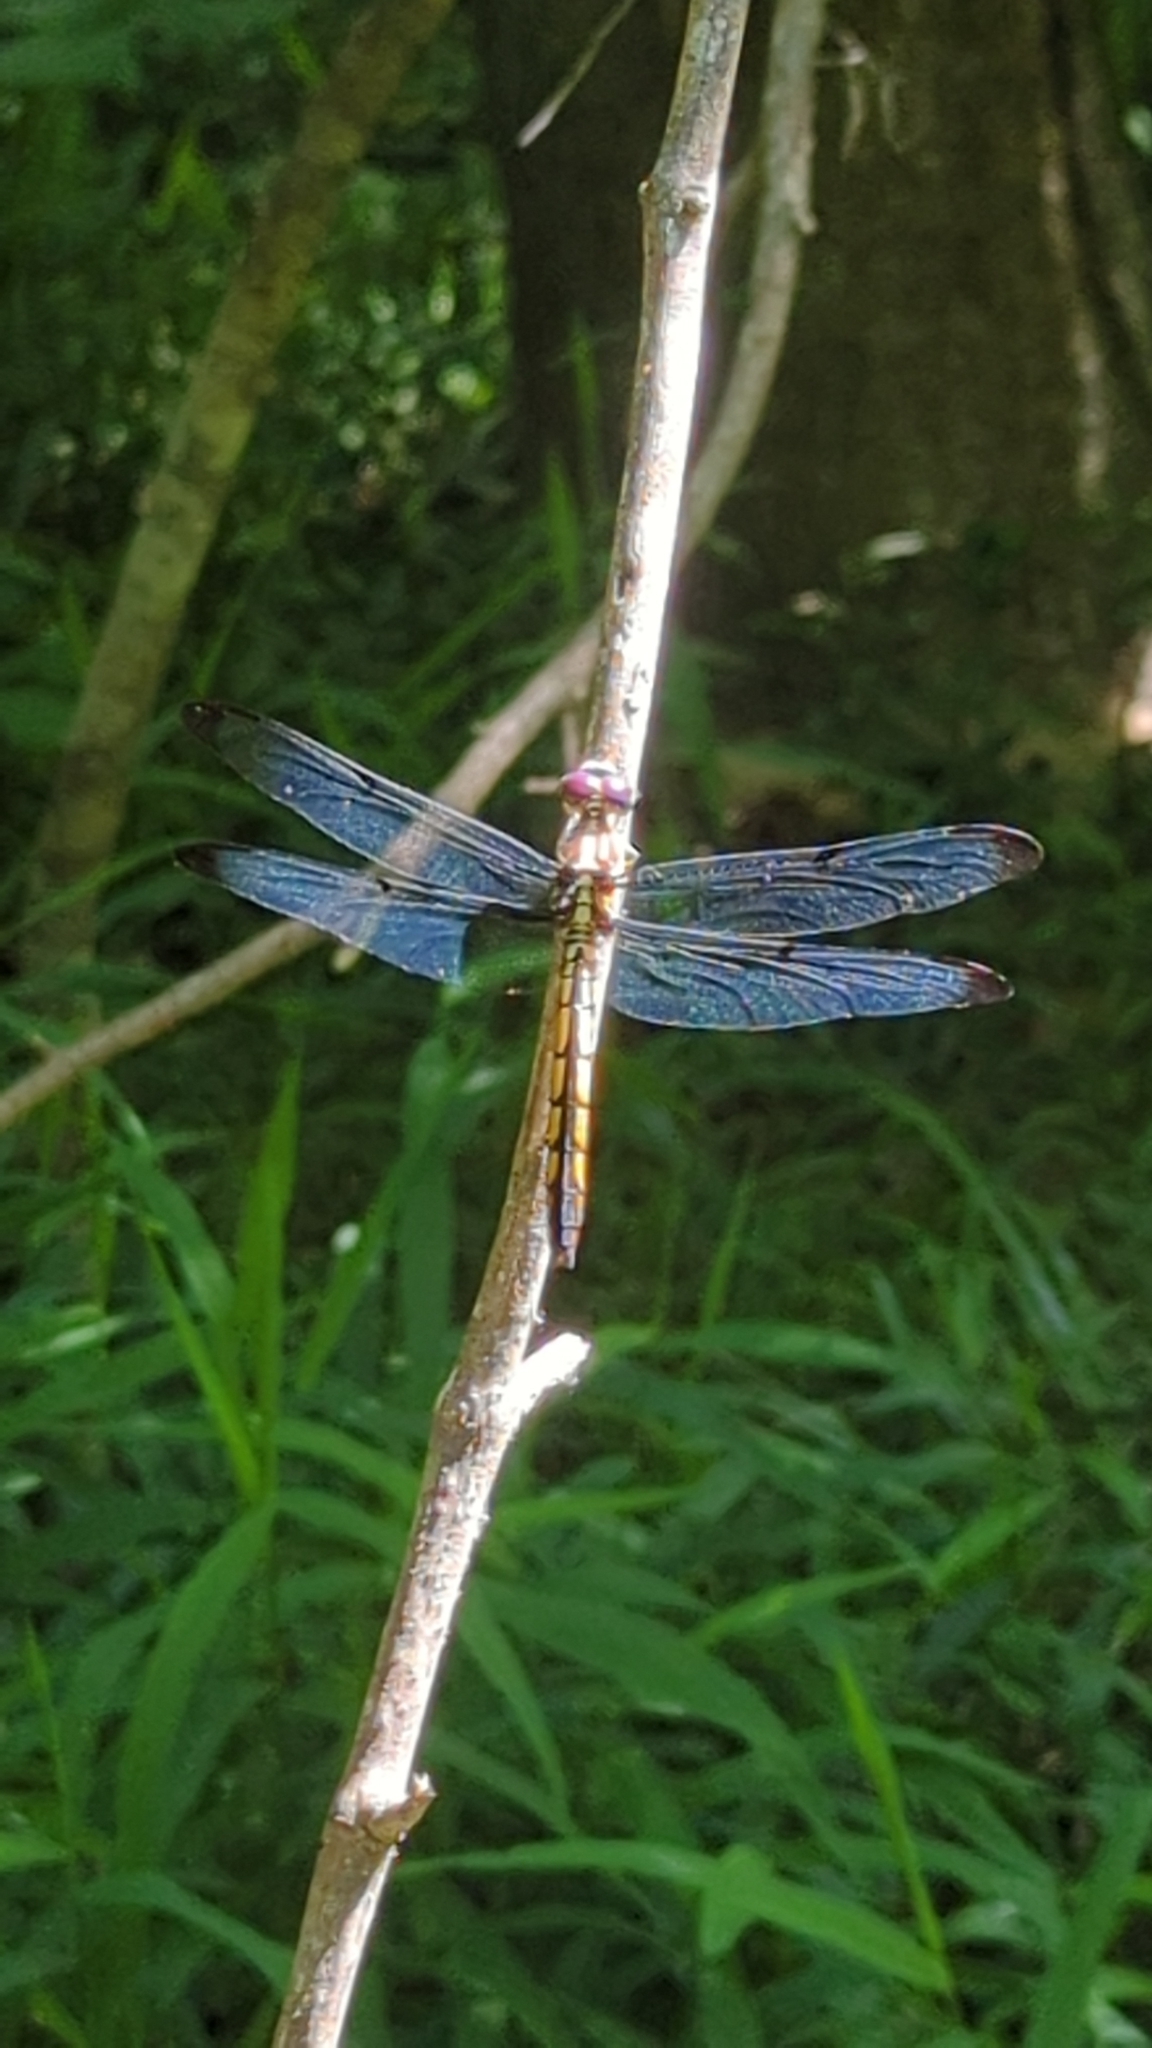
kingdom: Animalia
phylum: Arthropoda
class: Insecta
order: Odonata
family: Libellulidae
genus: Libellula
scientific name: Libellula vibrans
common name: Great blue skimmer
